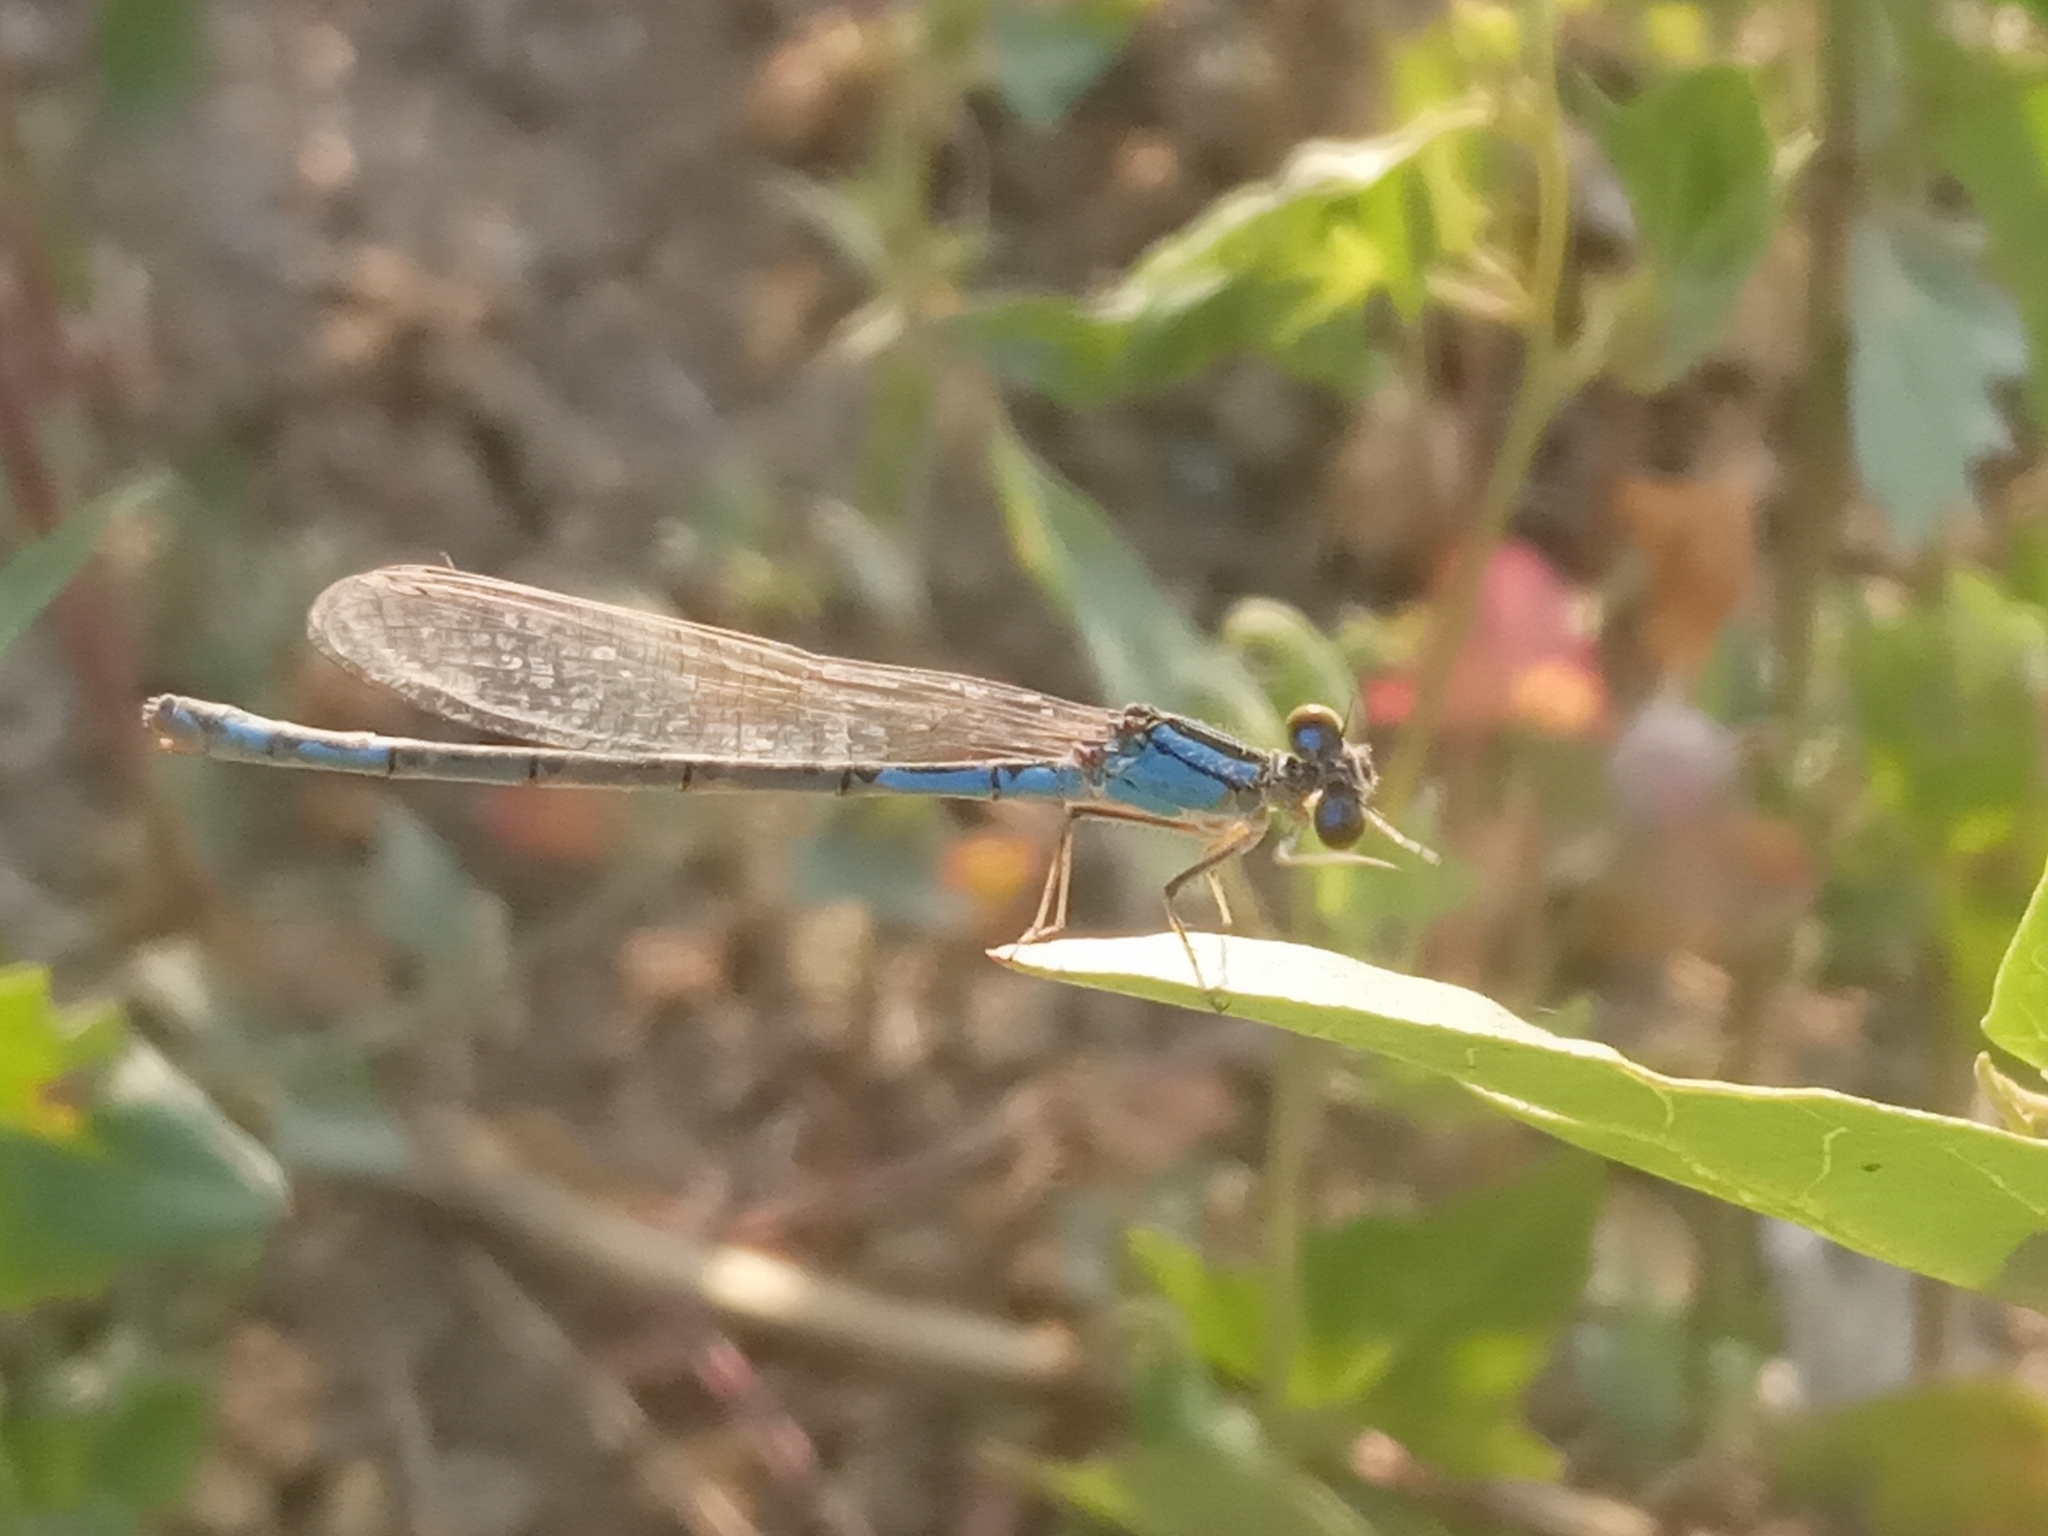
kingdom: Animalia
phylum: Arthropoda
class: Insecta
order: Odonata
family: Coenagrionidae
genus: Enallagma
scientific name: Enallagma cyathigerum
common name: Common blue damselfly
